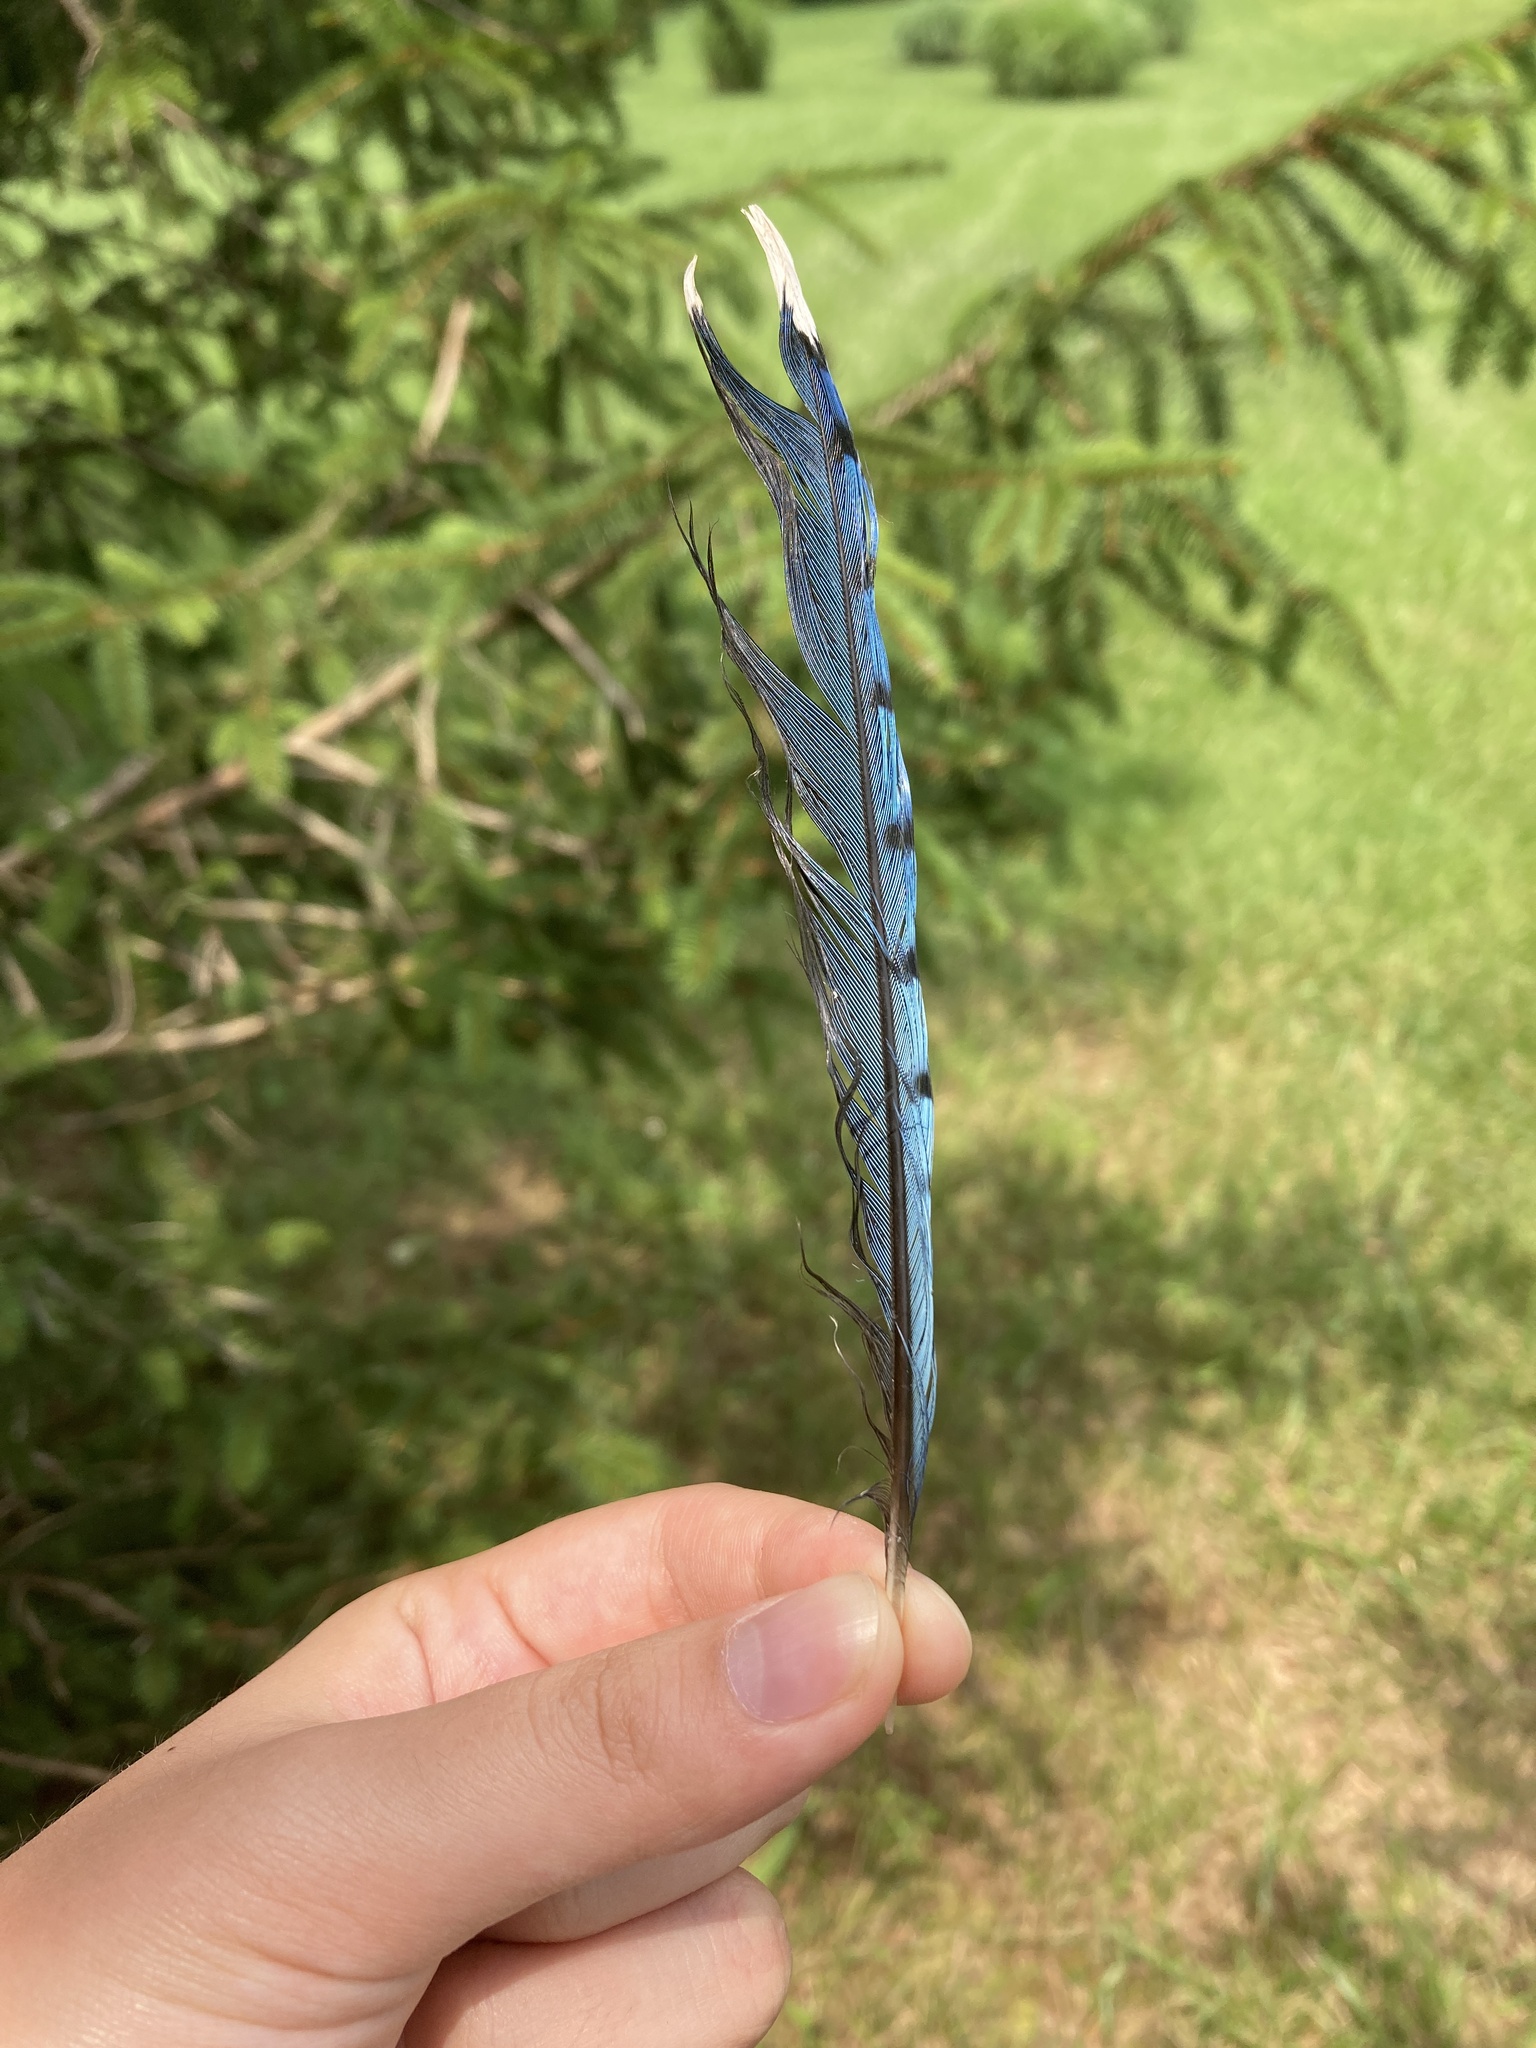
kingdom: Animalia
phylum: Chordata
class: Aves
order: Passeriformes
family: Corvidae
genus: Cyanocitta
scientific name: Cyanocitta cristata
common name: Blue jay
